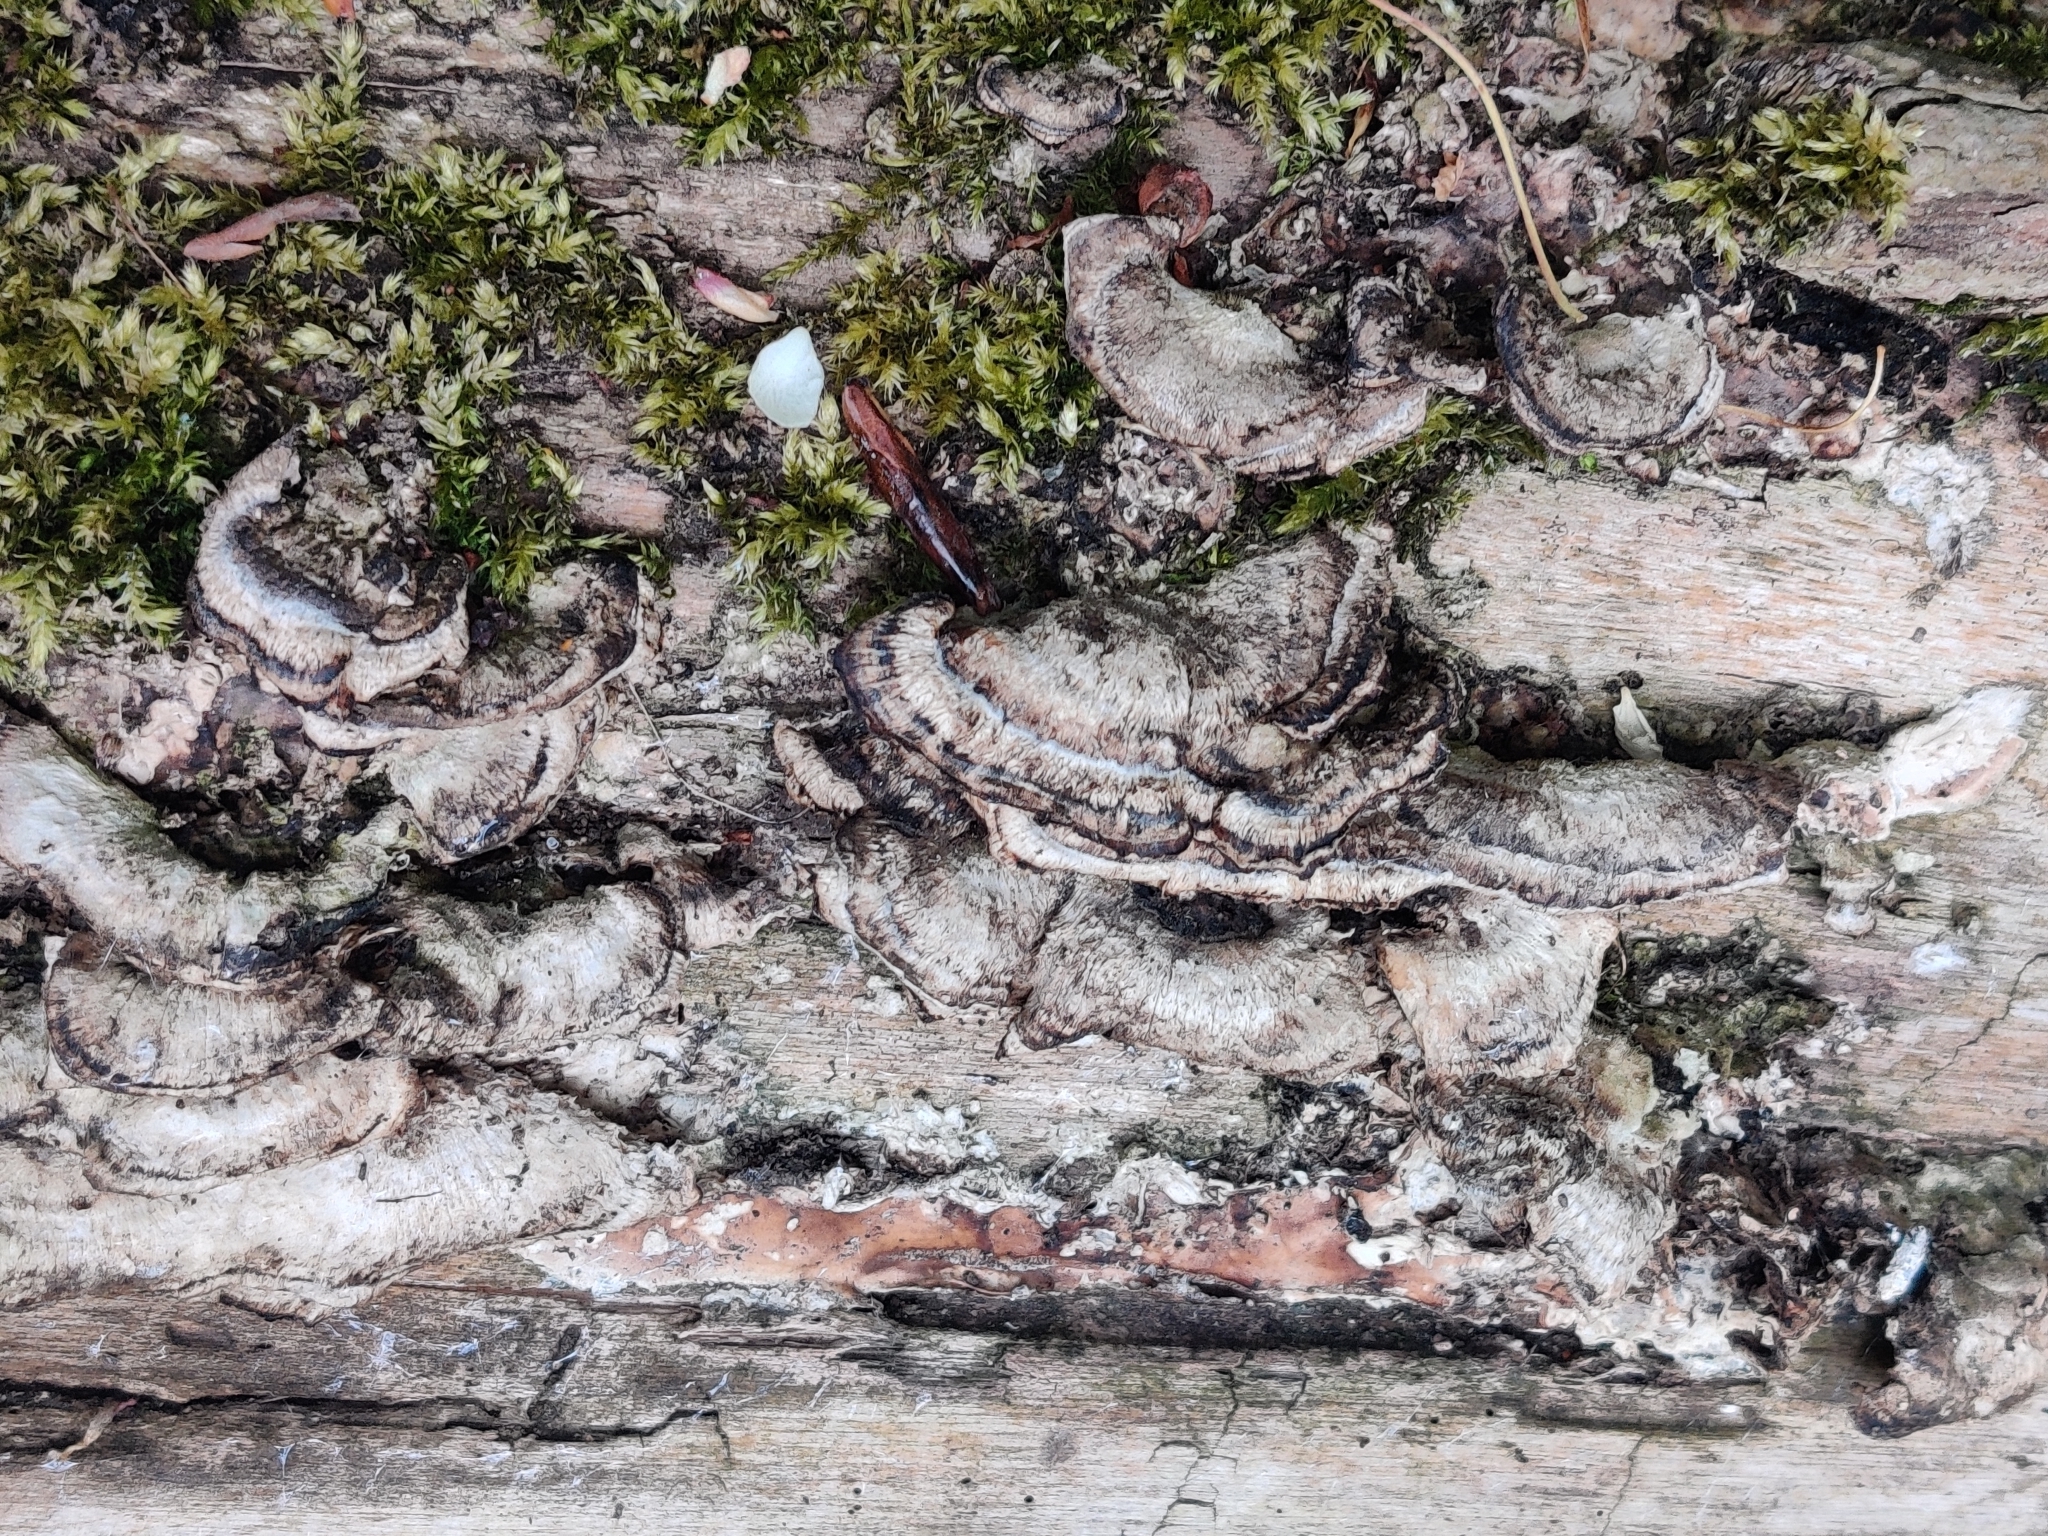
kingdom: Fungi
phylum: Basidiomycota
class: Agaricomycetes
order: Polyporales
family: Polyporaceae
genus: Trametes
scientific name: Trametes versicolor
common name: Turkeytail
